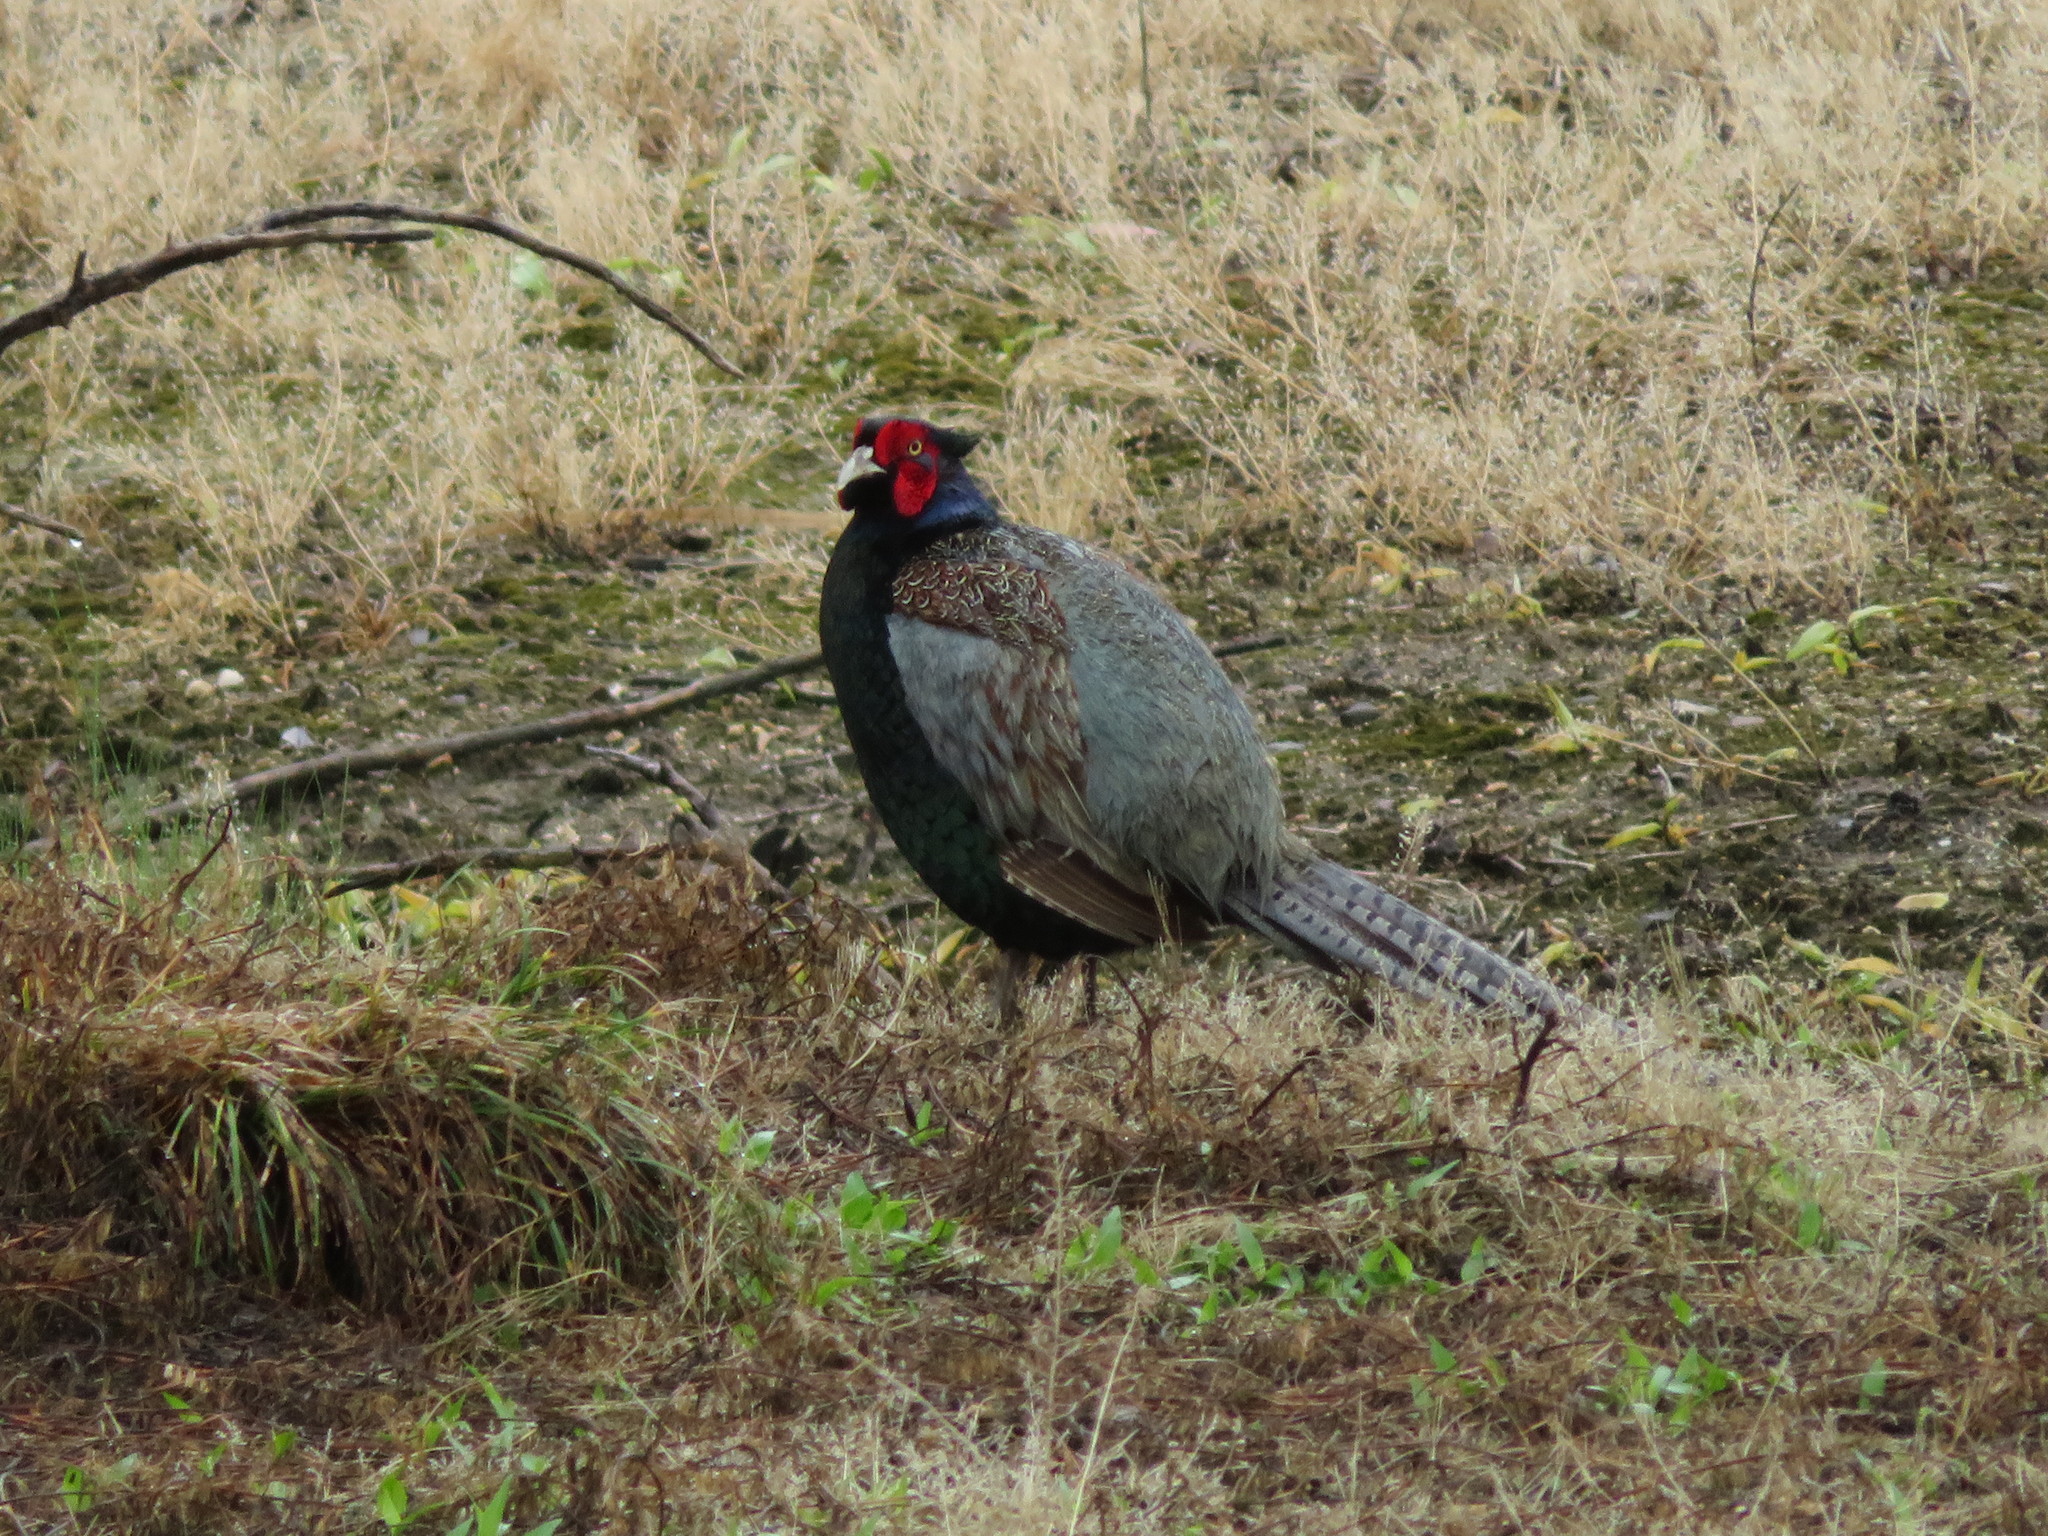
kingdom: Animalia
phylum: Chordata
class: Aves
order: Galliformes
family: Phasianidae
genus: Phasianus
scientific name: Phasianus versicolor
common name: Green pheasant
